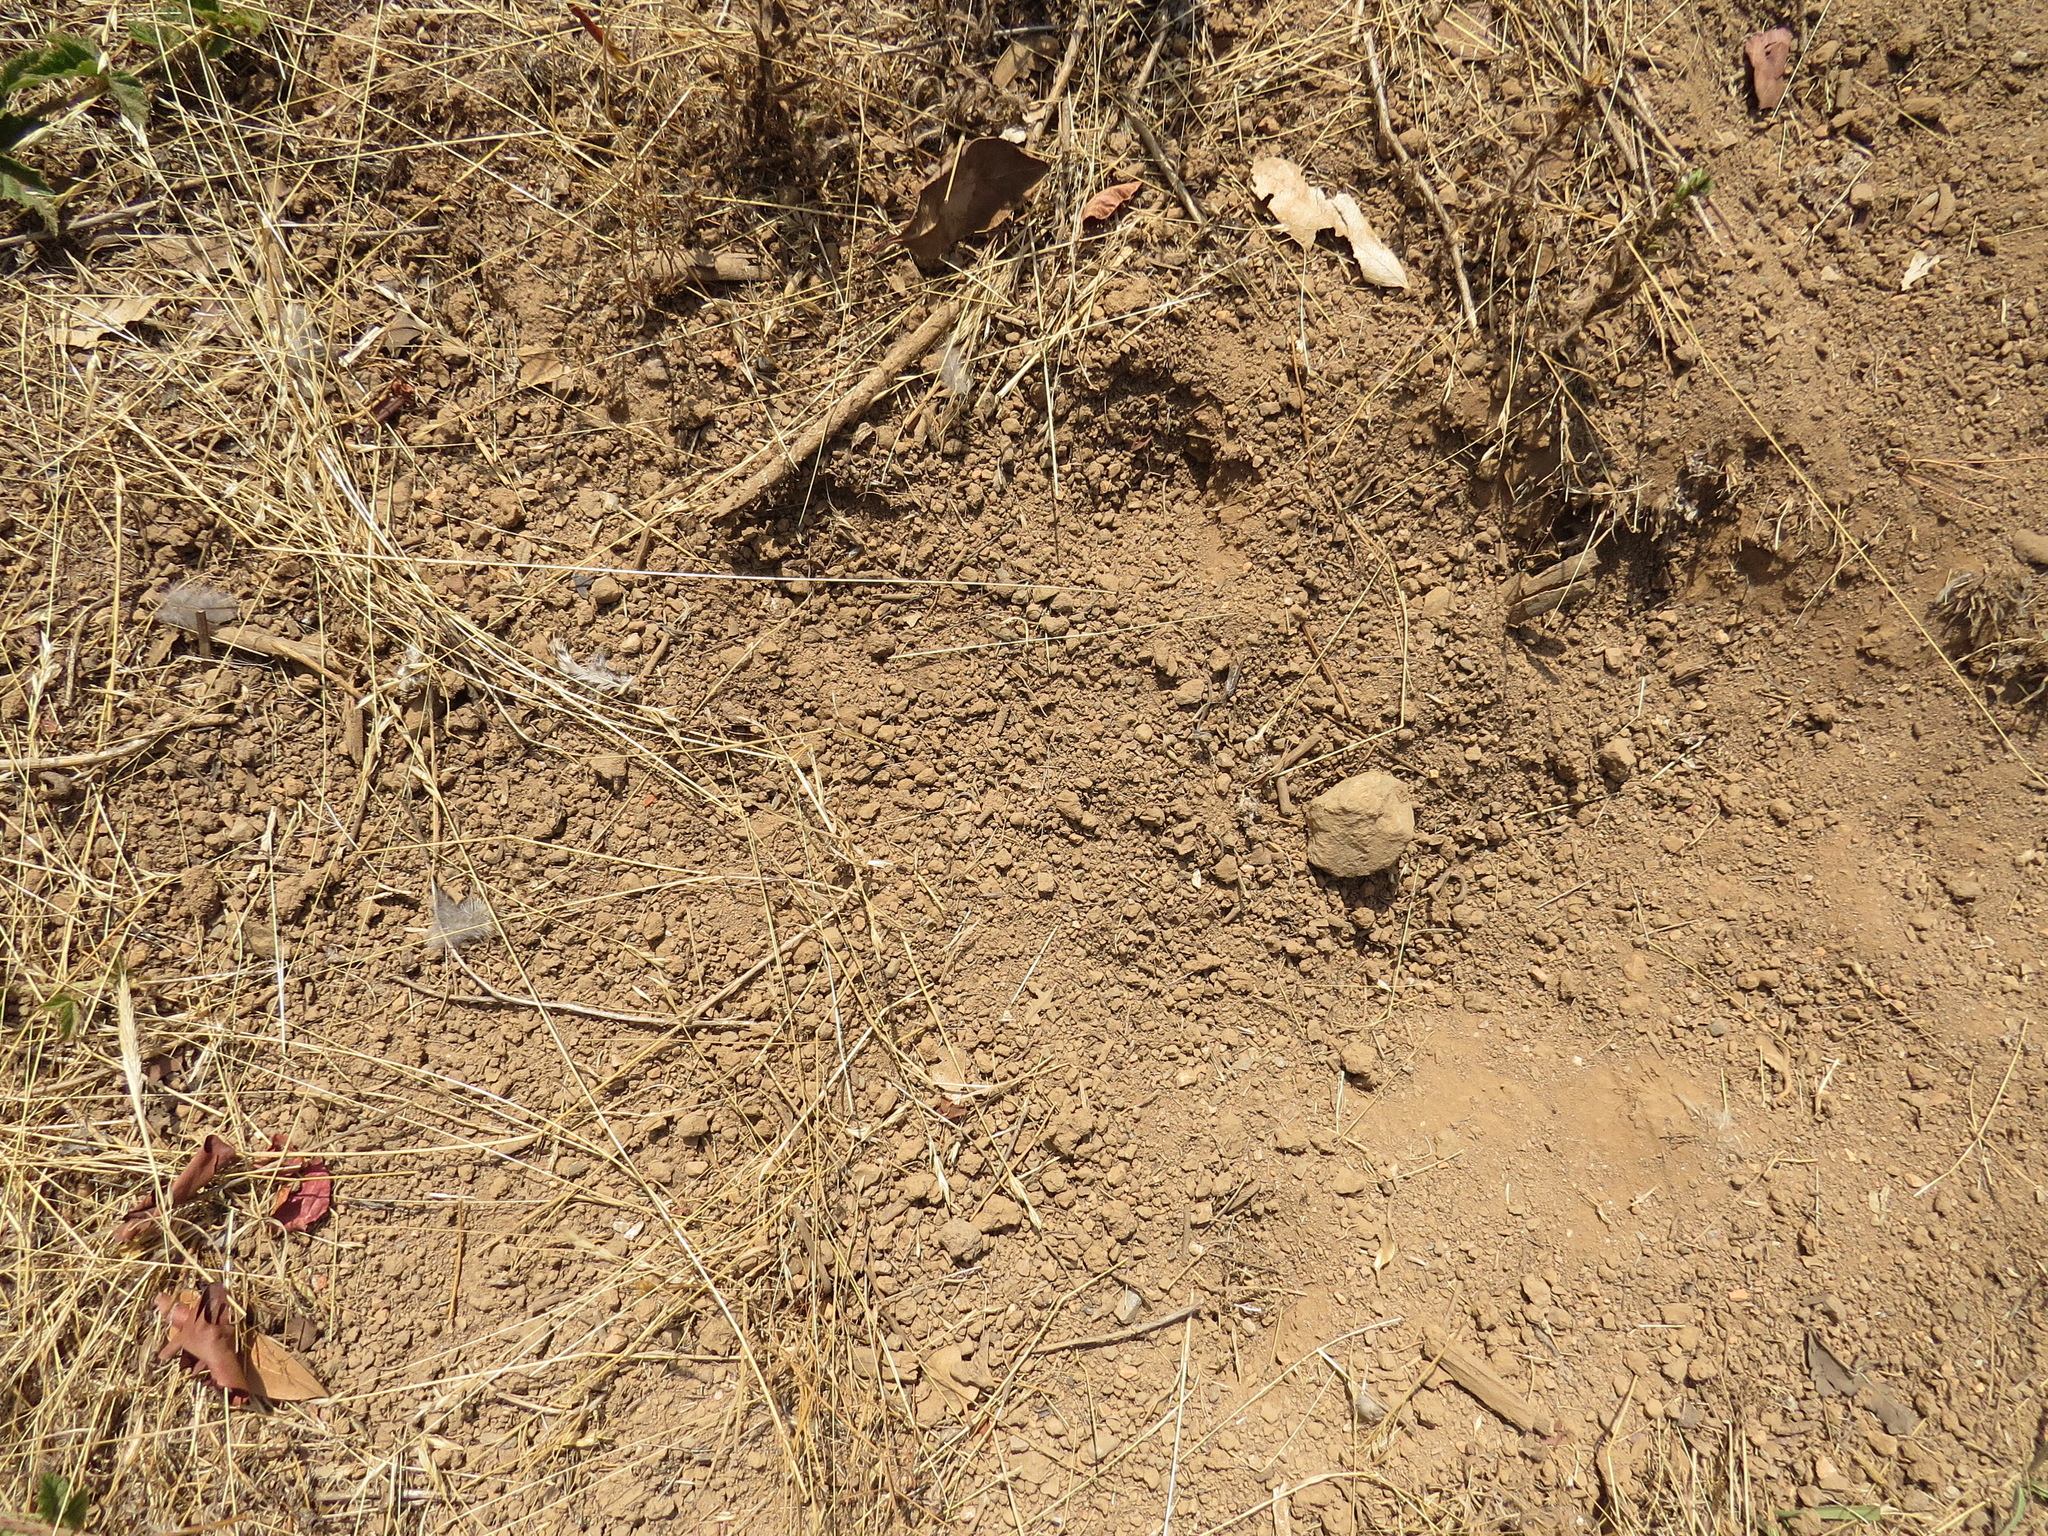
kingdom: Animalia
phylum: Chordata
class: Aves
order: Galliformes
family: Odontophoridae
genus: Callipepla
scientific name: Callipepla californica
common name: California quail
